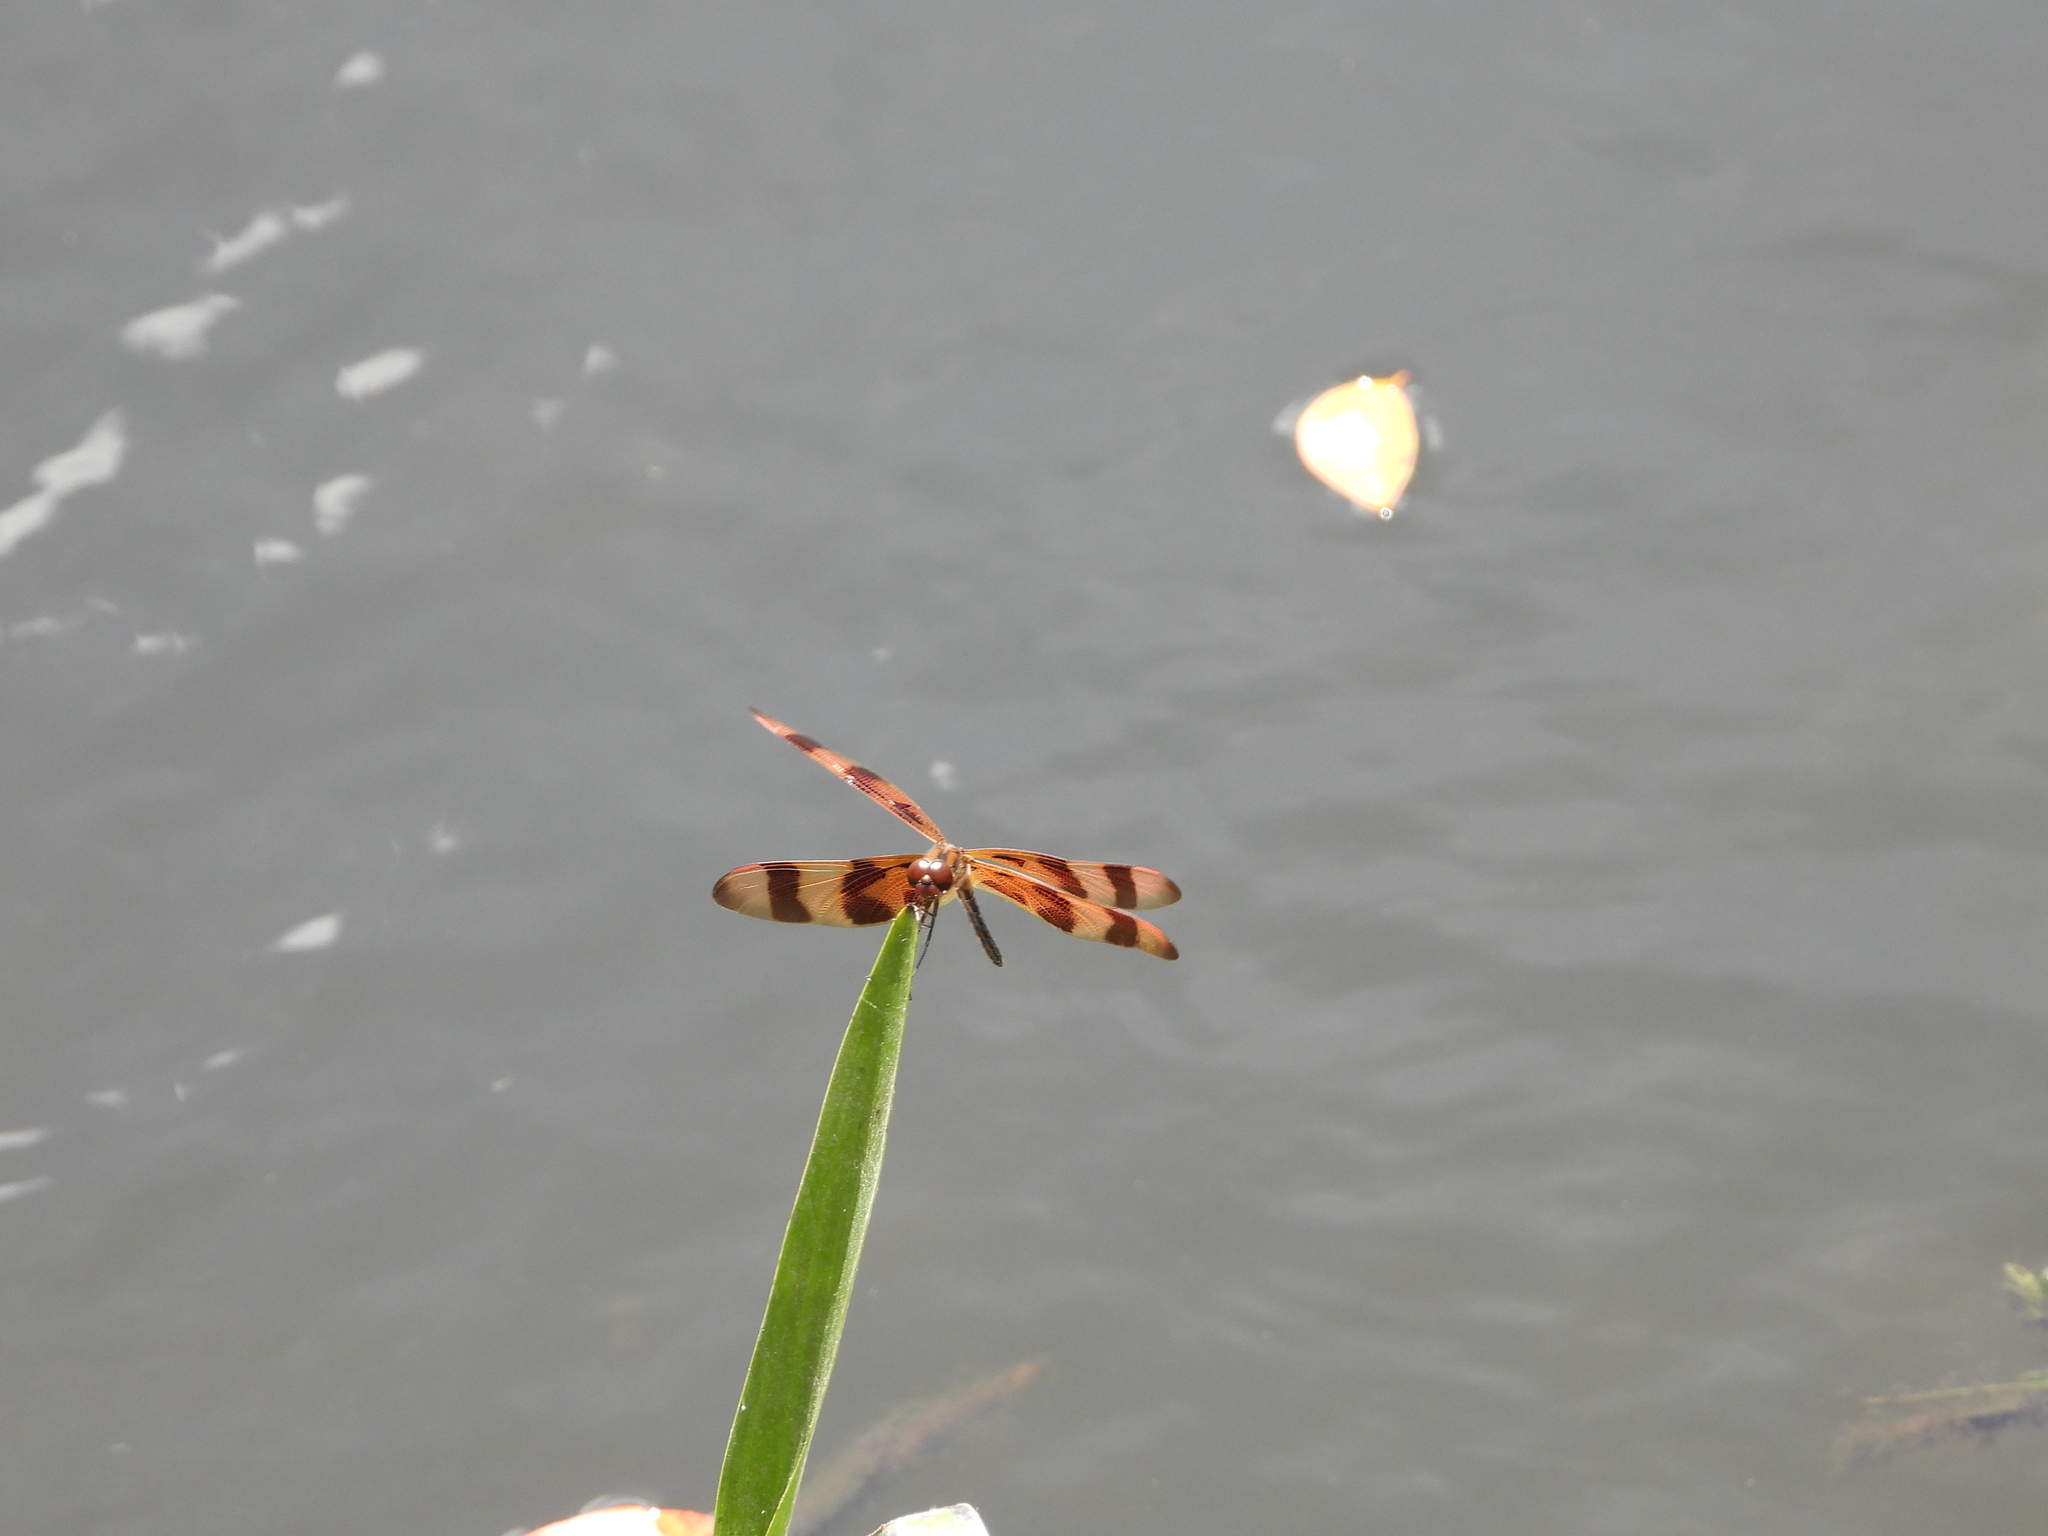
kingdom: Animalia
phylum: Arthropoda
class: Insecta
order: Odonata
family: Libellulidae
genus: Celithemis
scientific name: Celithemis eponina
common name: Halloween pennant
